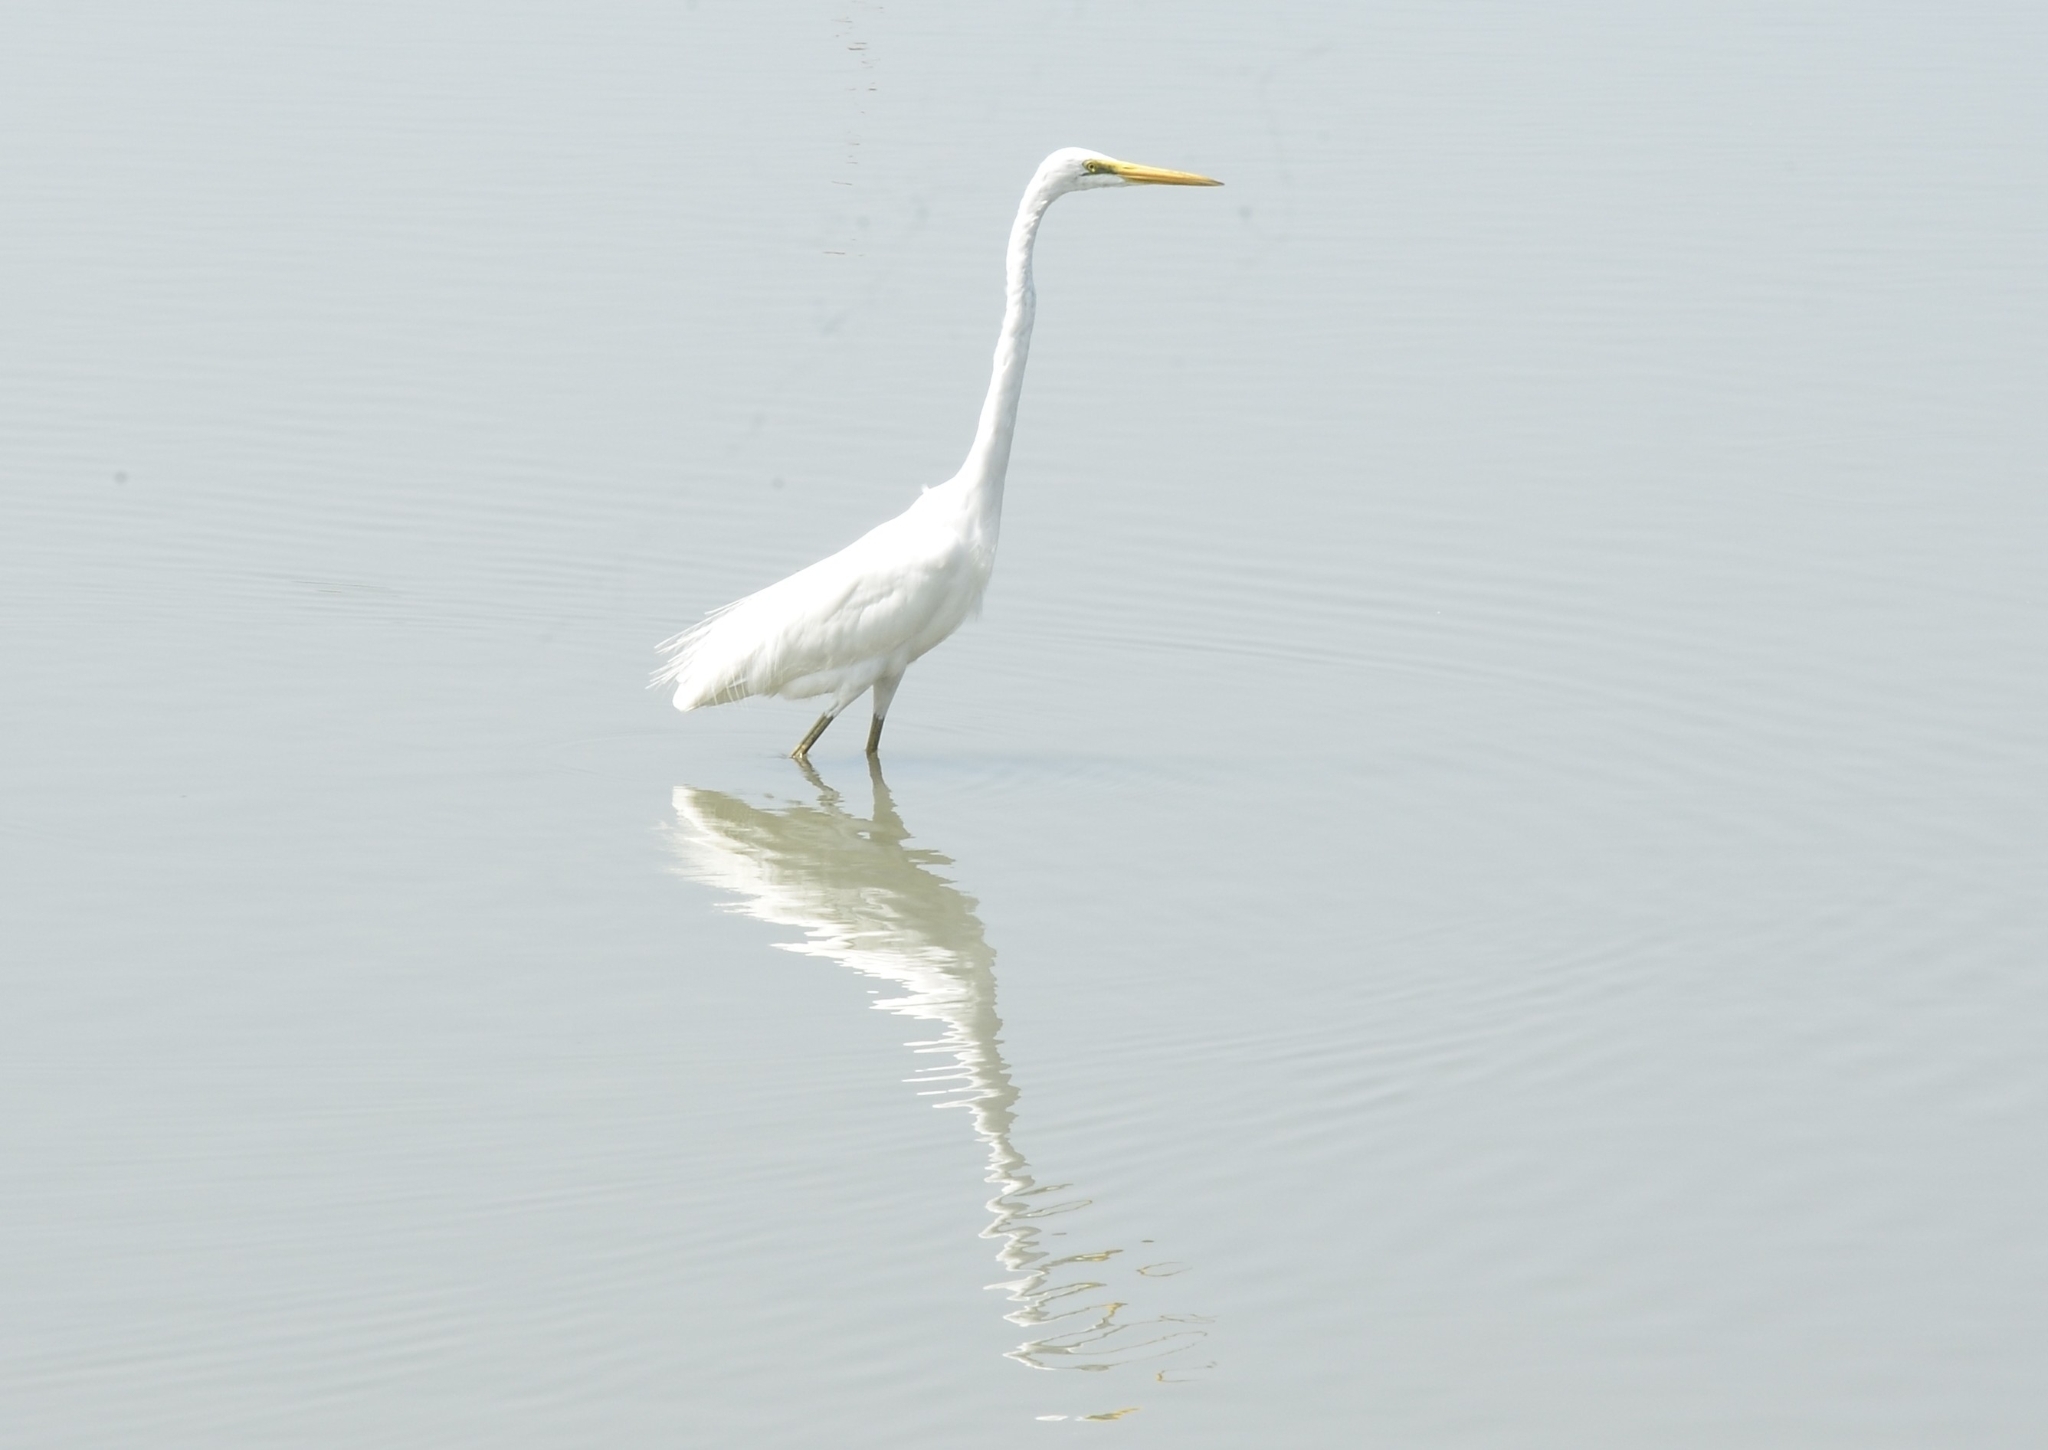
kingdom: Animalia
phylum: Chordata
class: Aves
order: Pelecaniformes
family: Ardeidae
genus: Ardea
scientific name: Ardea alba
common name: Great egret
